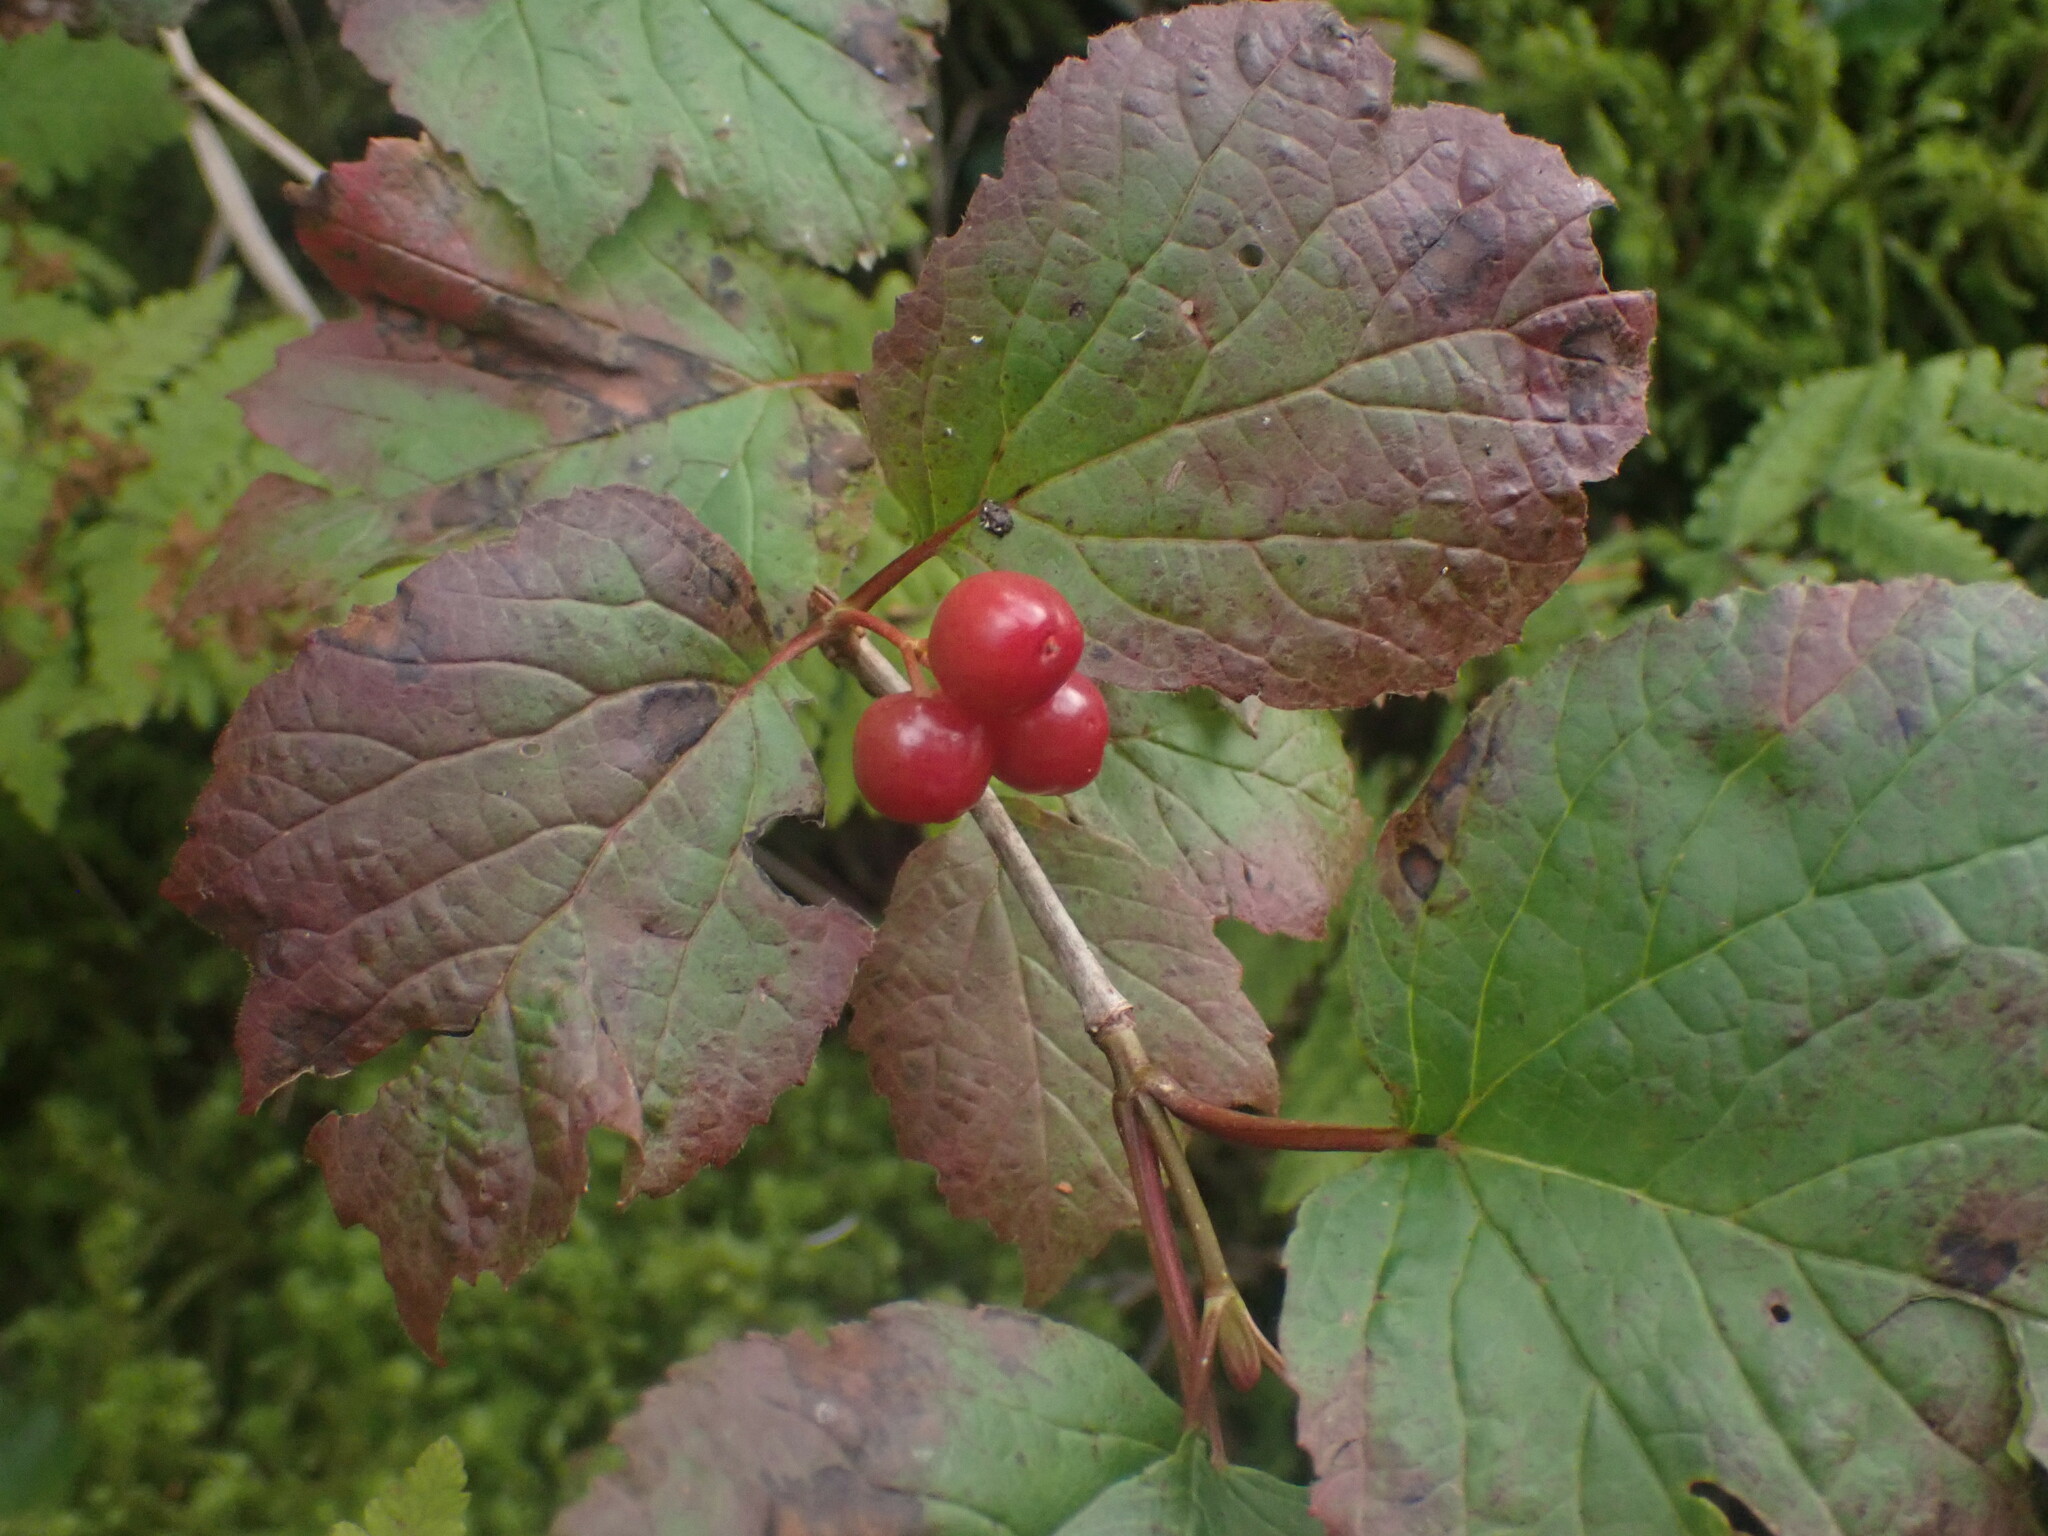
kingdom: Plantae
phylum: Tracheophyta
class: Magnoliopsida
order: Dipsacales
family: Viburnaceae
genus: Viburnum
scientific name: Viburnum edule
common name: Mooseberry
